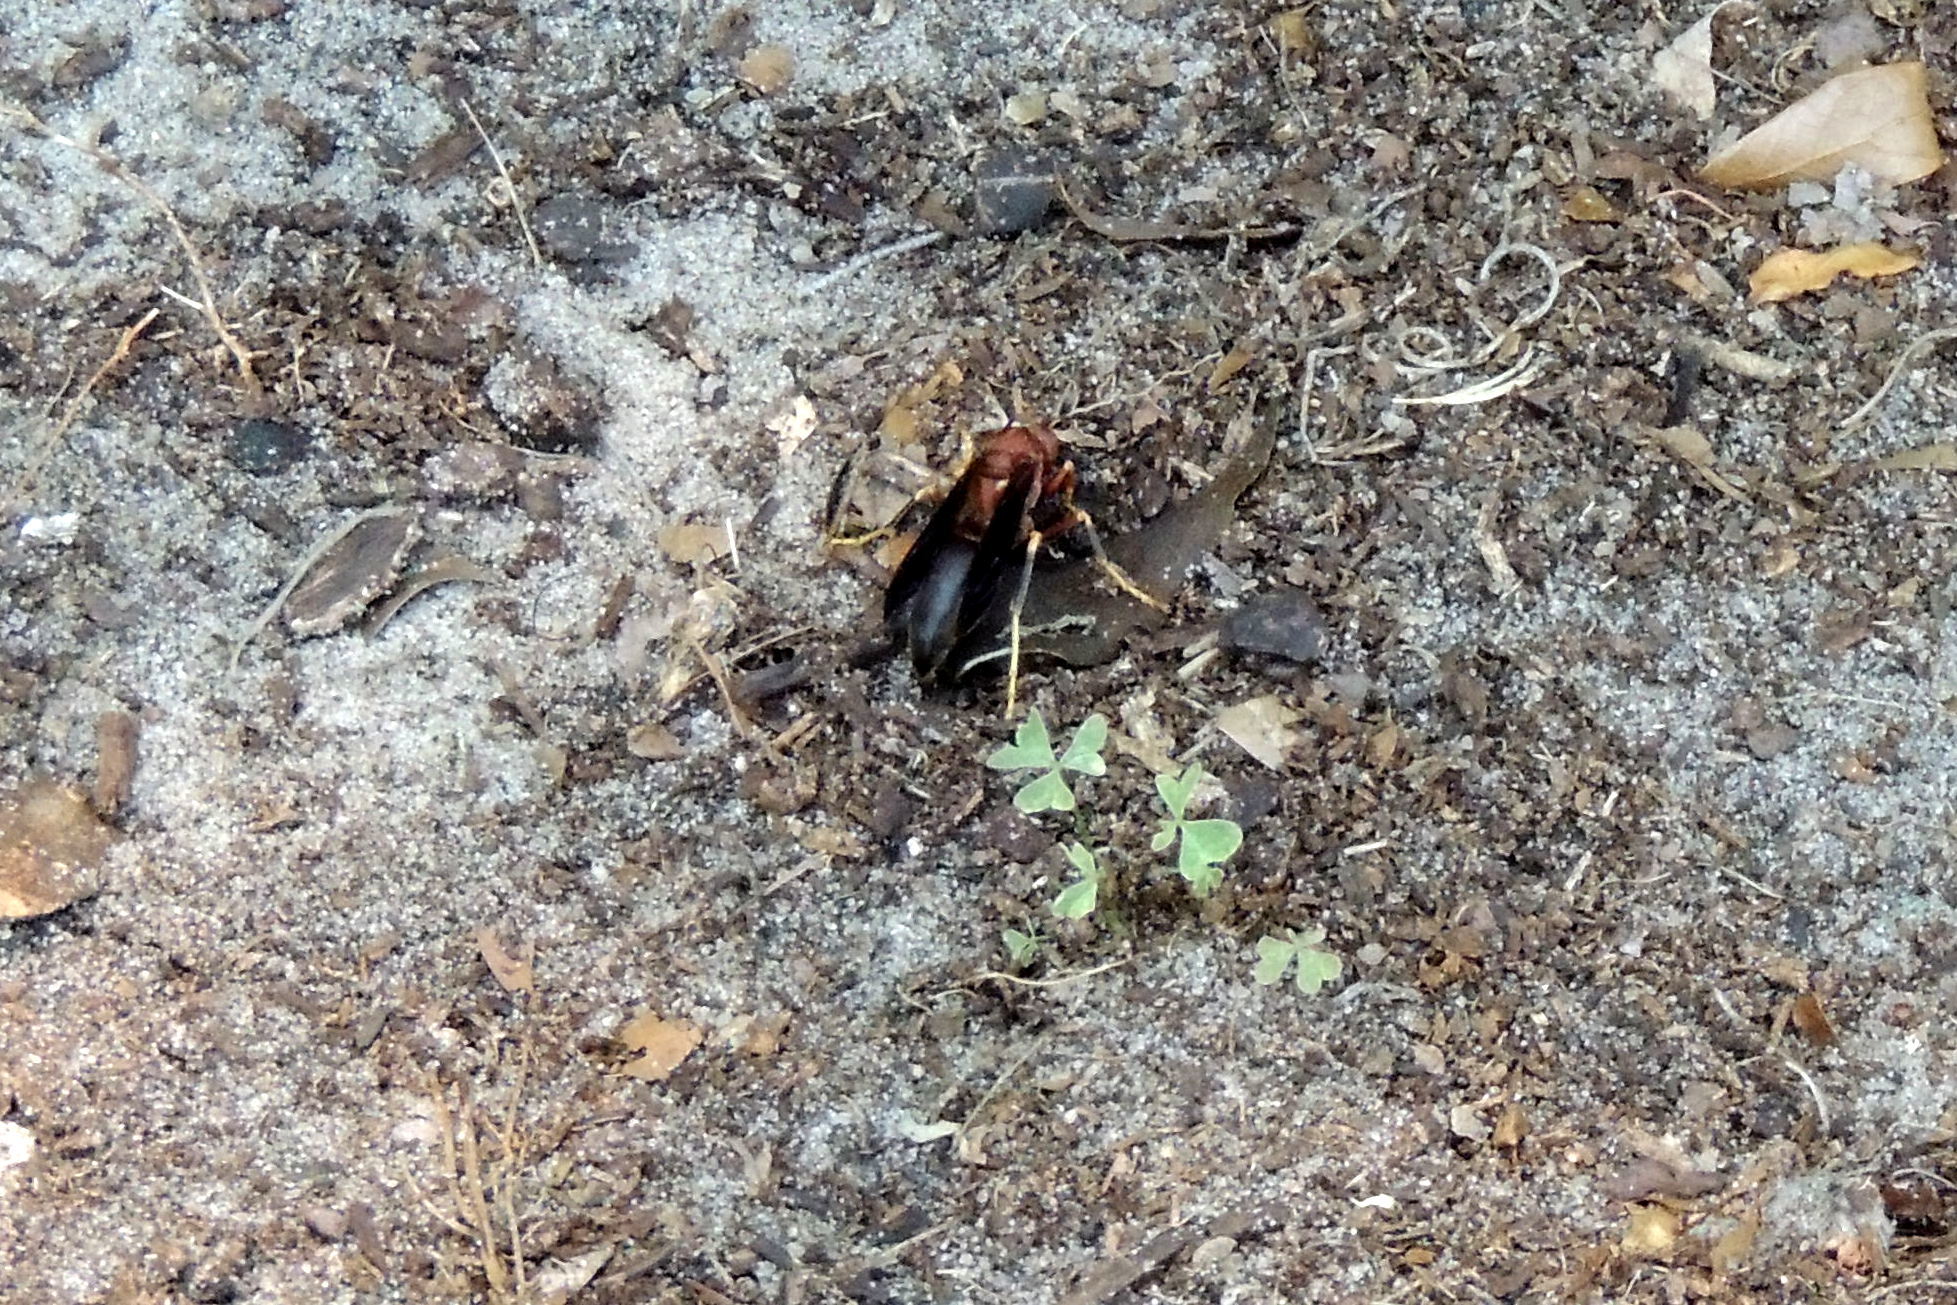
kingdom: Animalia
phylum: Arthropoda
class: Insecta
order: Hymenoptera
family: Eumenidae
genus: Polistes
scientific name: Polistes metricus
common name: Metric paper wasp
